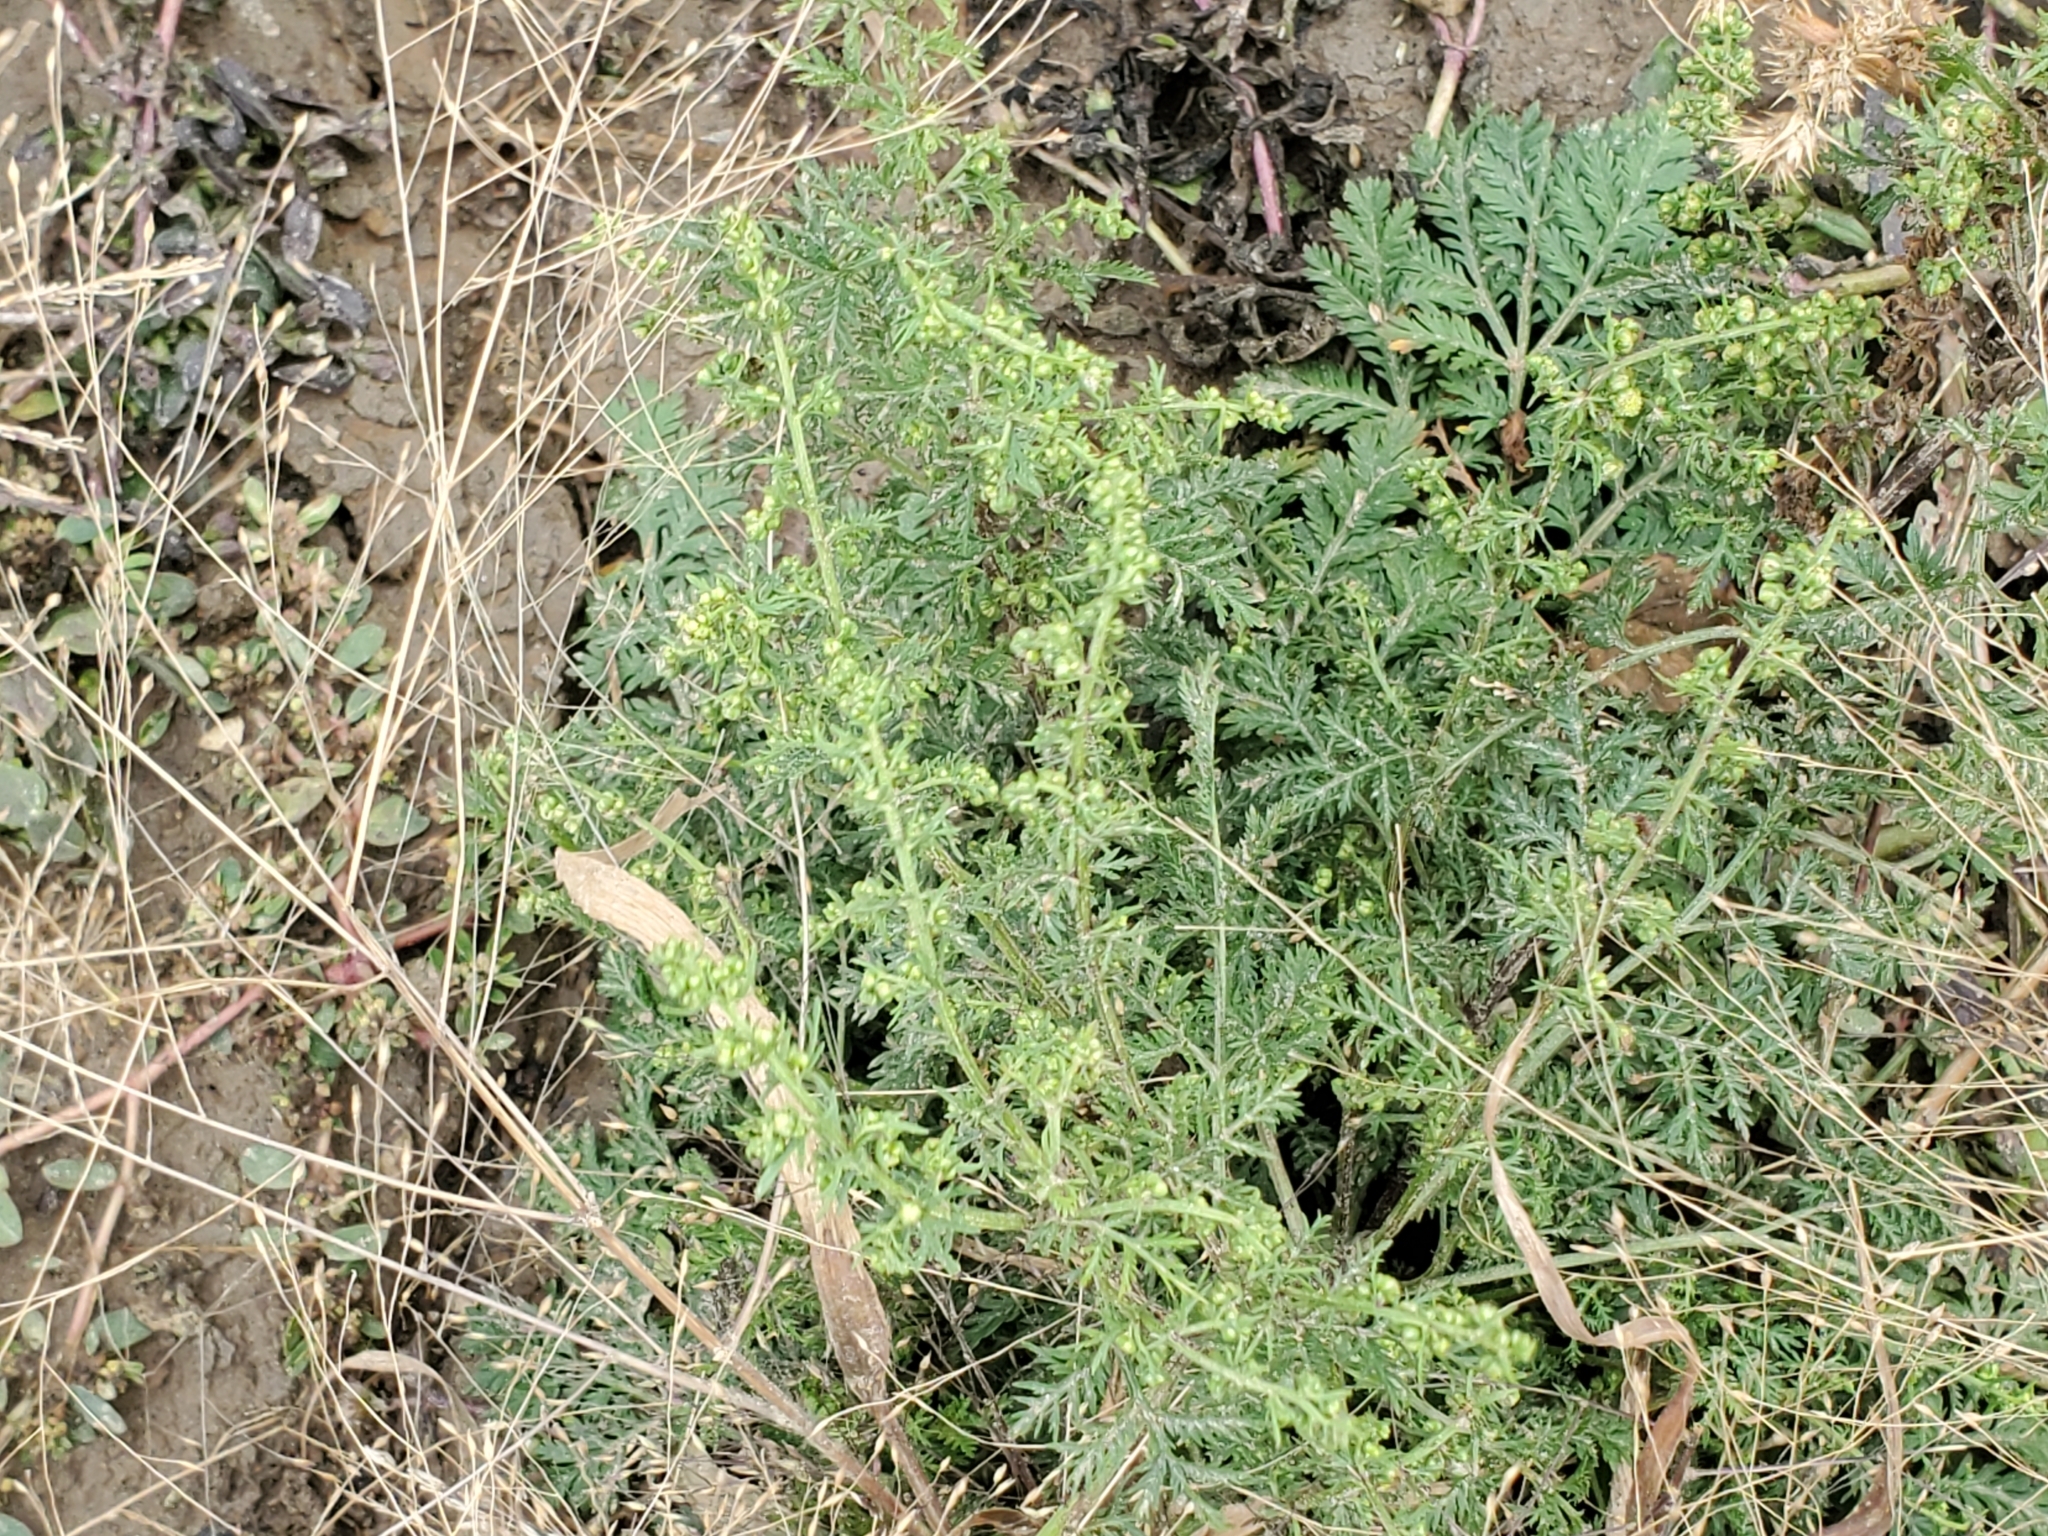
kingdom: Plantae
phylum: Tracheophyta
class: Magnoliopsida
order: Asterales
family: Asteraceae
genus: Artemisia
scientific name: Artemisia annua
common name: Sweet sagewort
